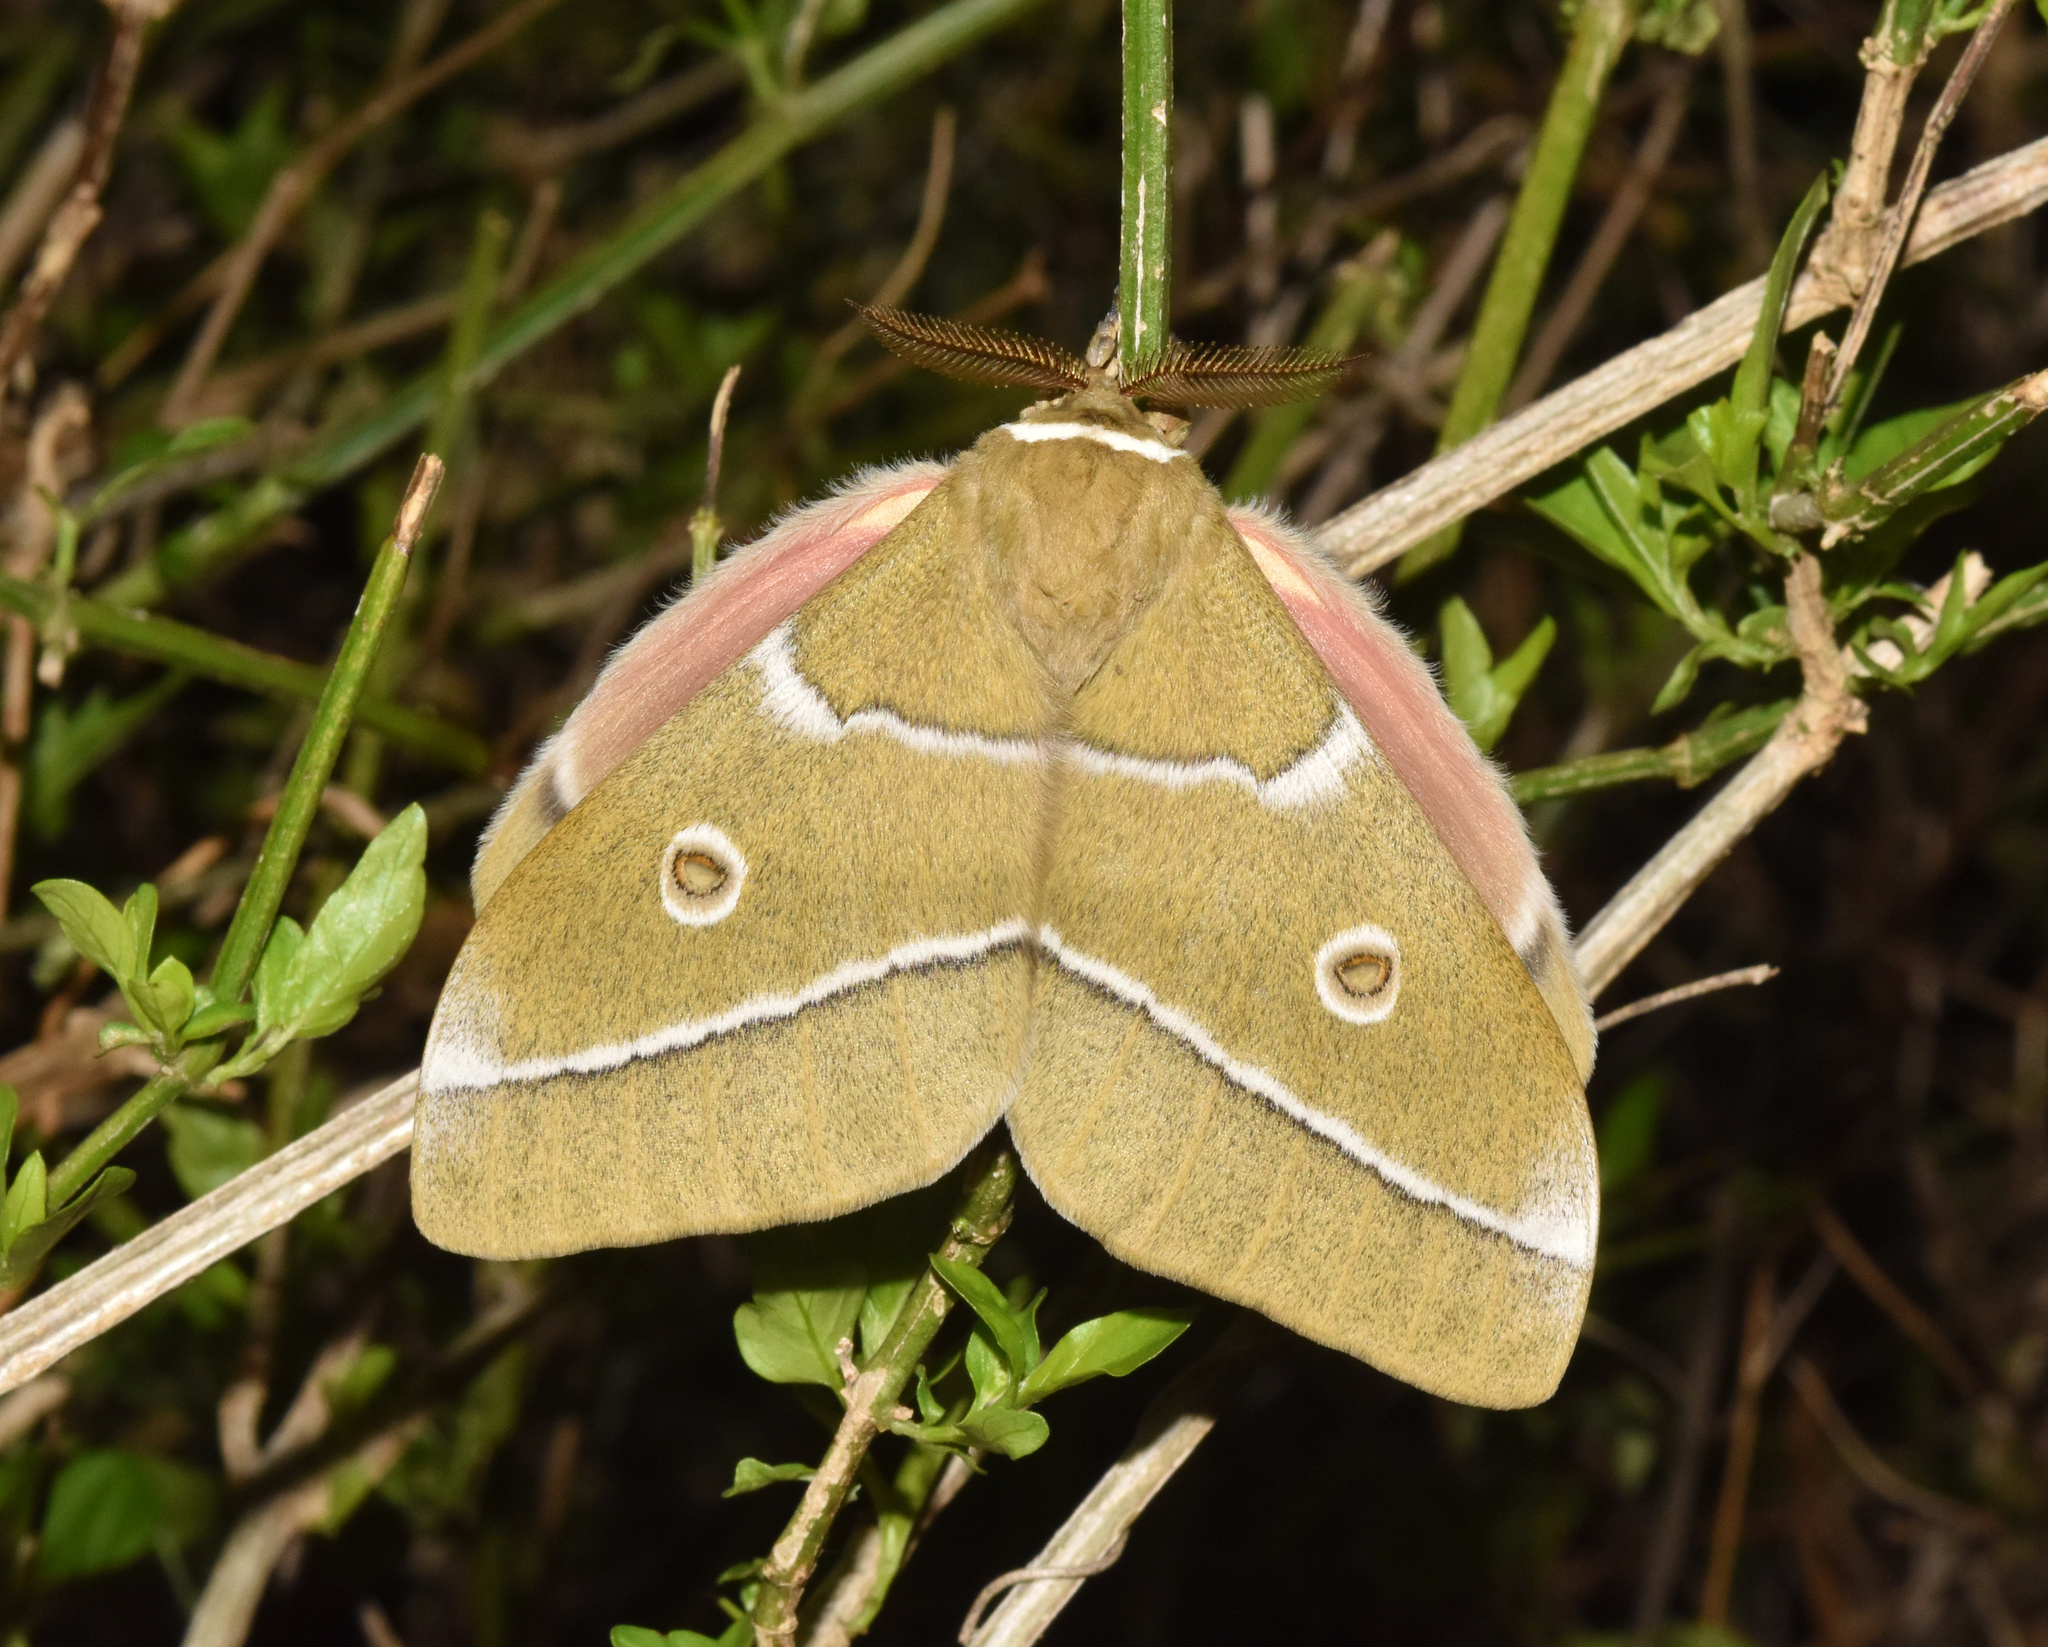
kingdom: Animalia
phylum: Arthropoda
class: Insecta
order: Lepidoptera
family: Saturniidae
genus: Gonimbrasia
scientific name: Gonimbrasia belina
